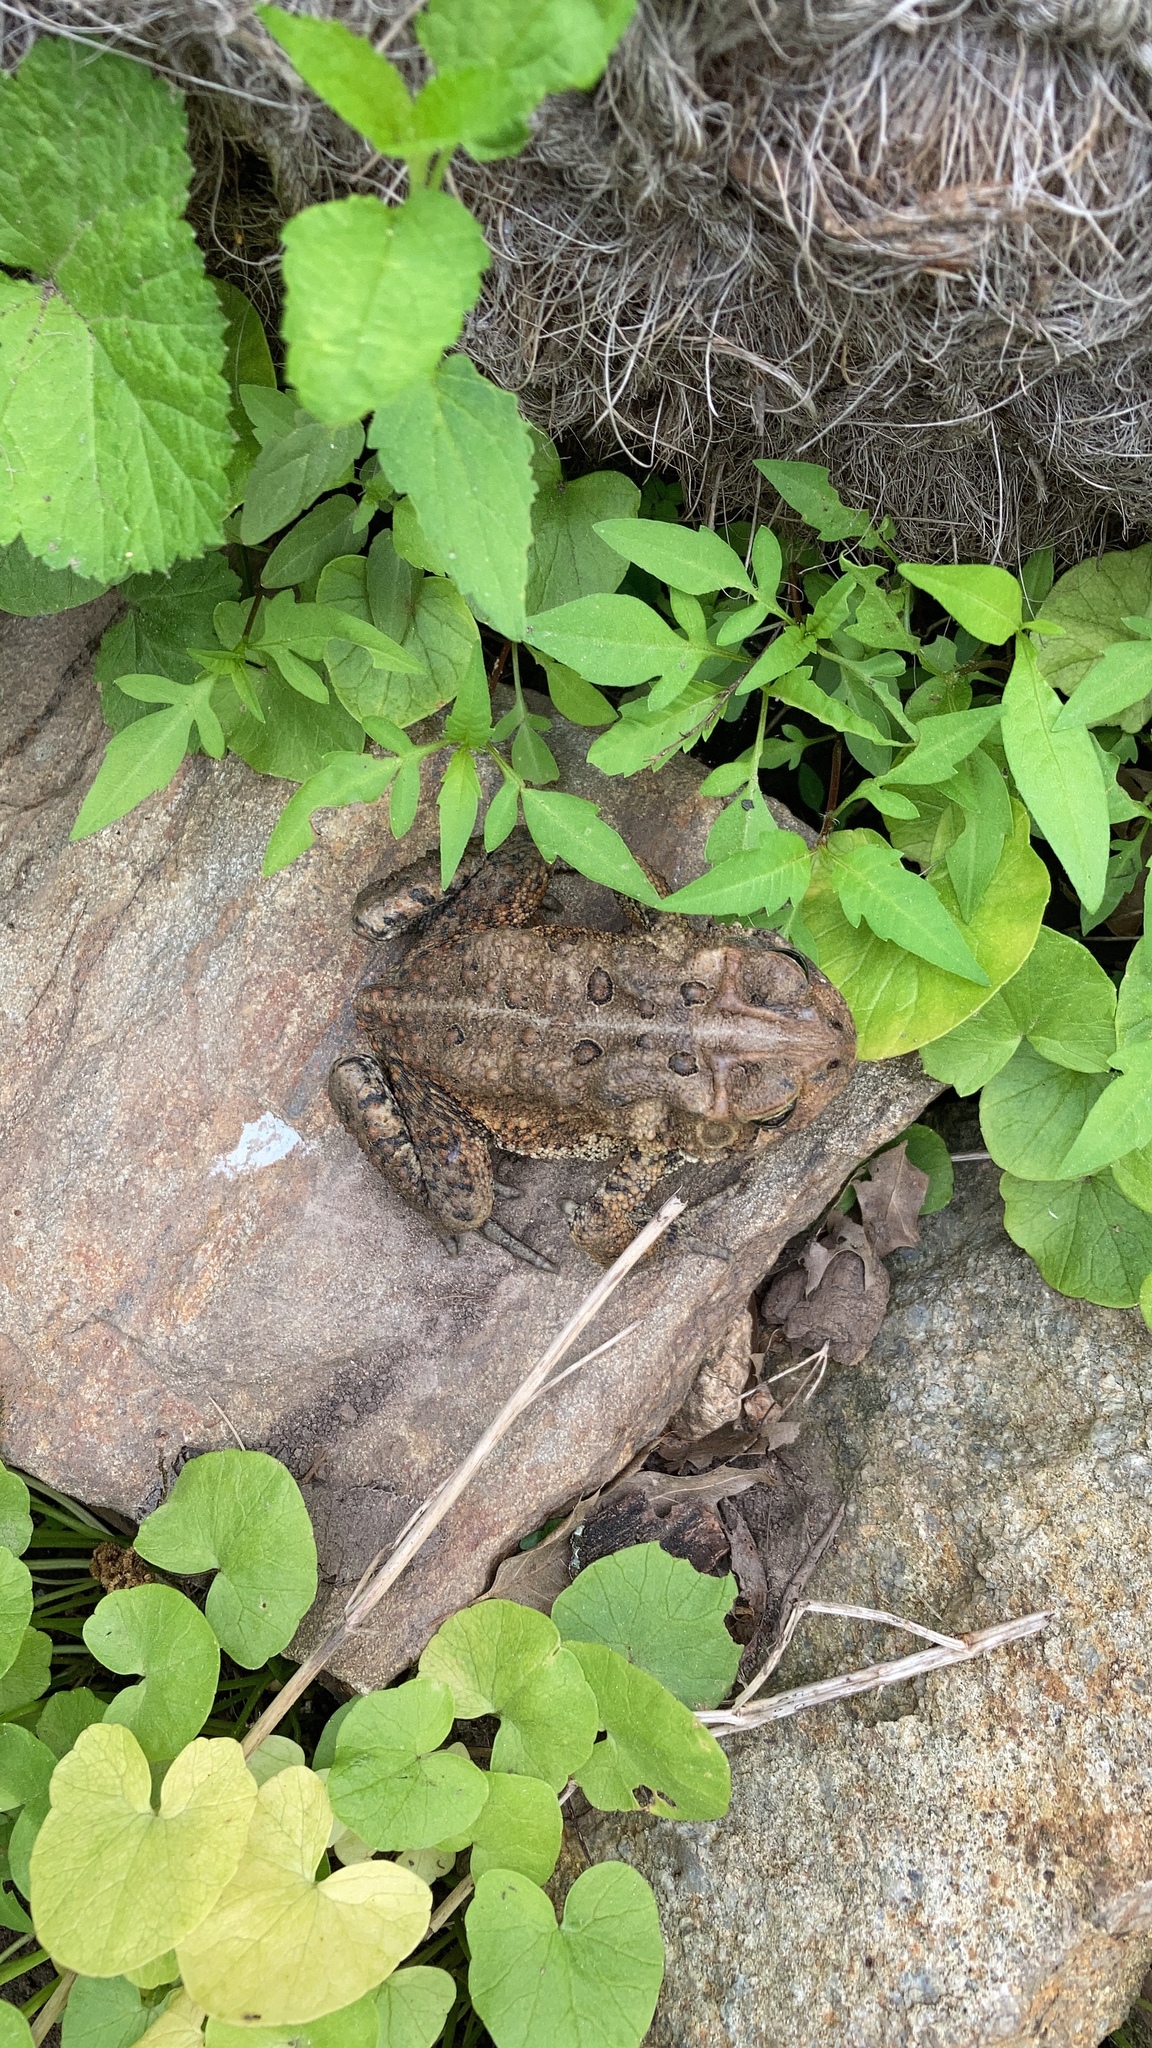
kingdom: Animalia
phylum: Chordata
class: Amphibia
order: Anura
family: Bufonidae
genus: Anaxyrus
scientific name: Anaxyrus americanus
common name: American toad
